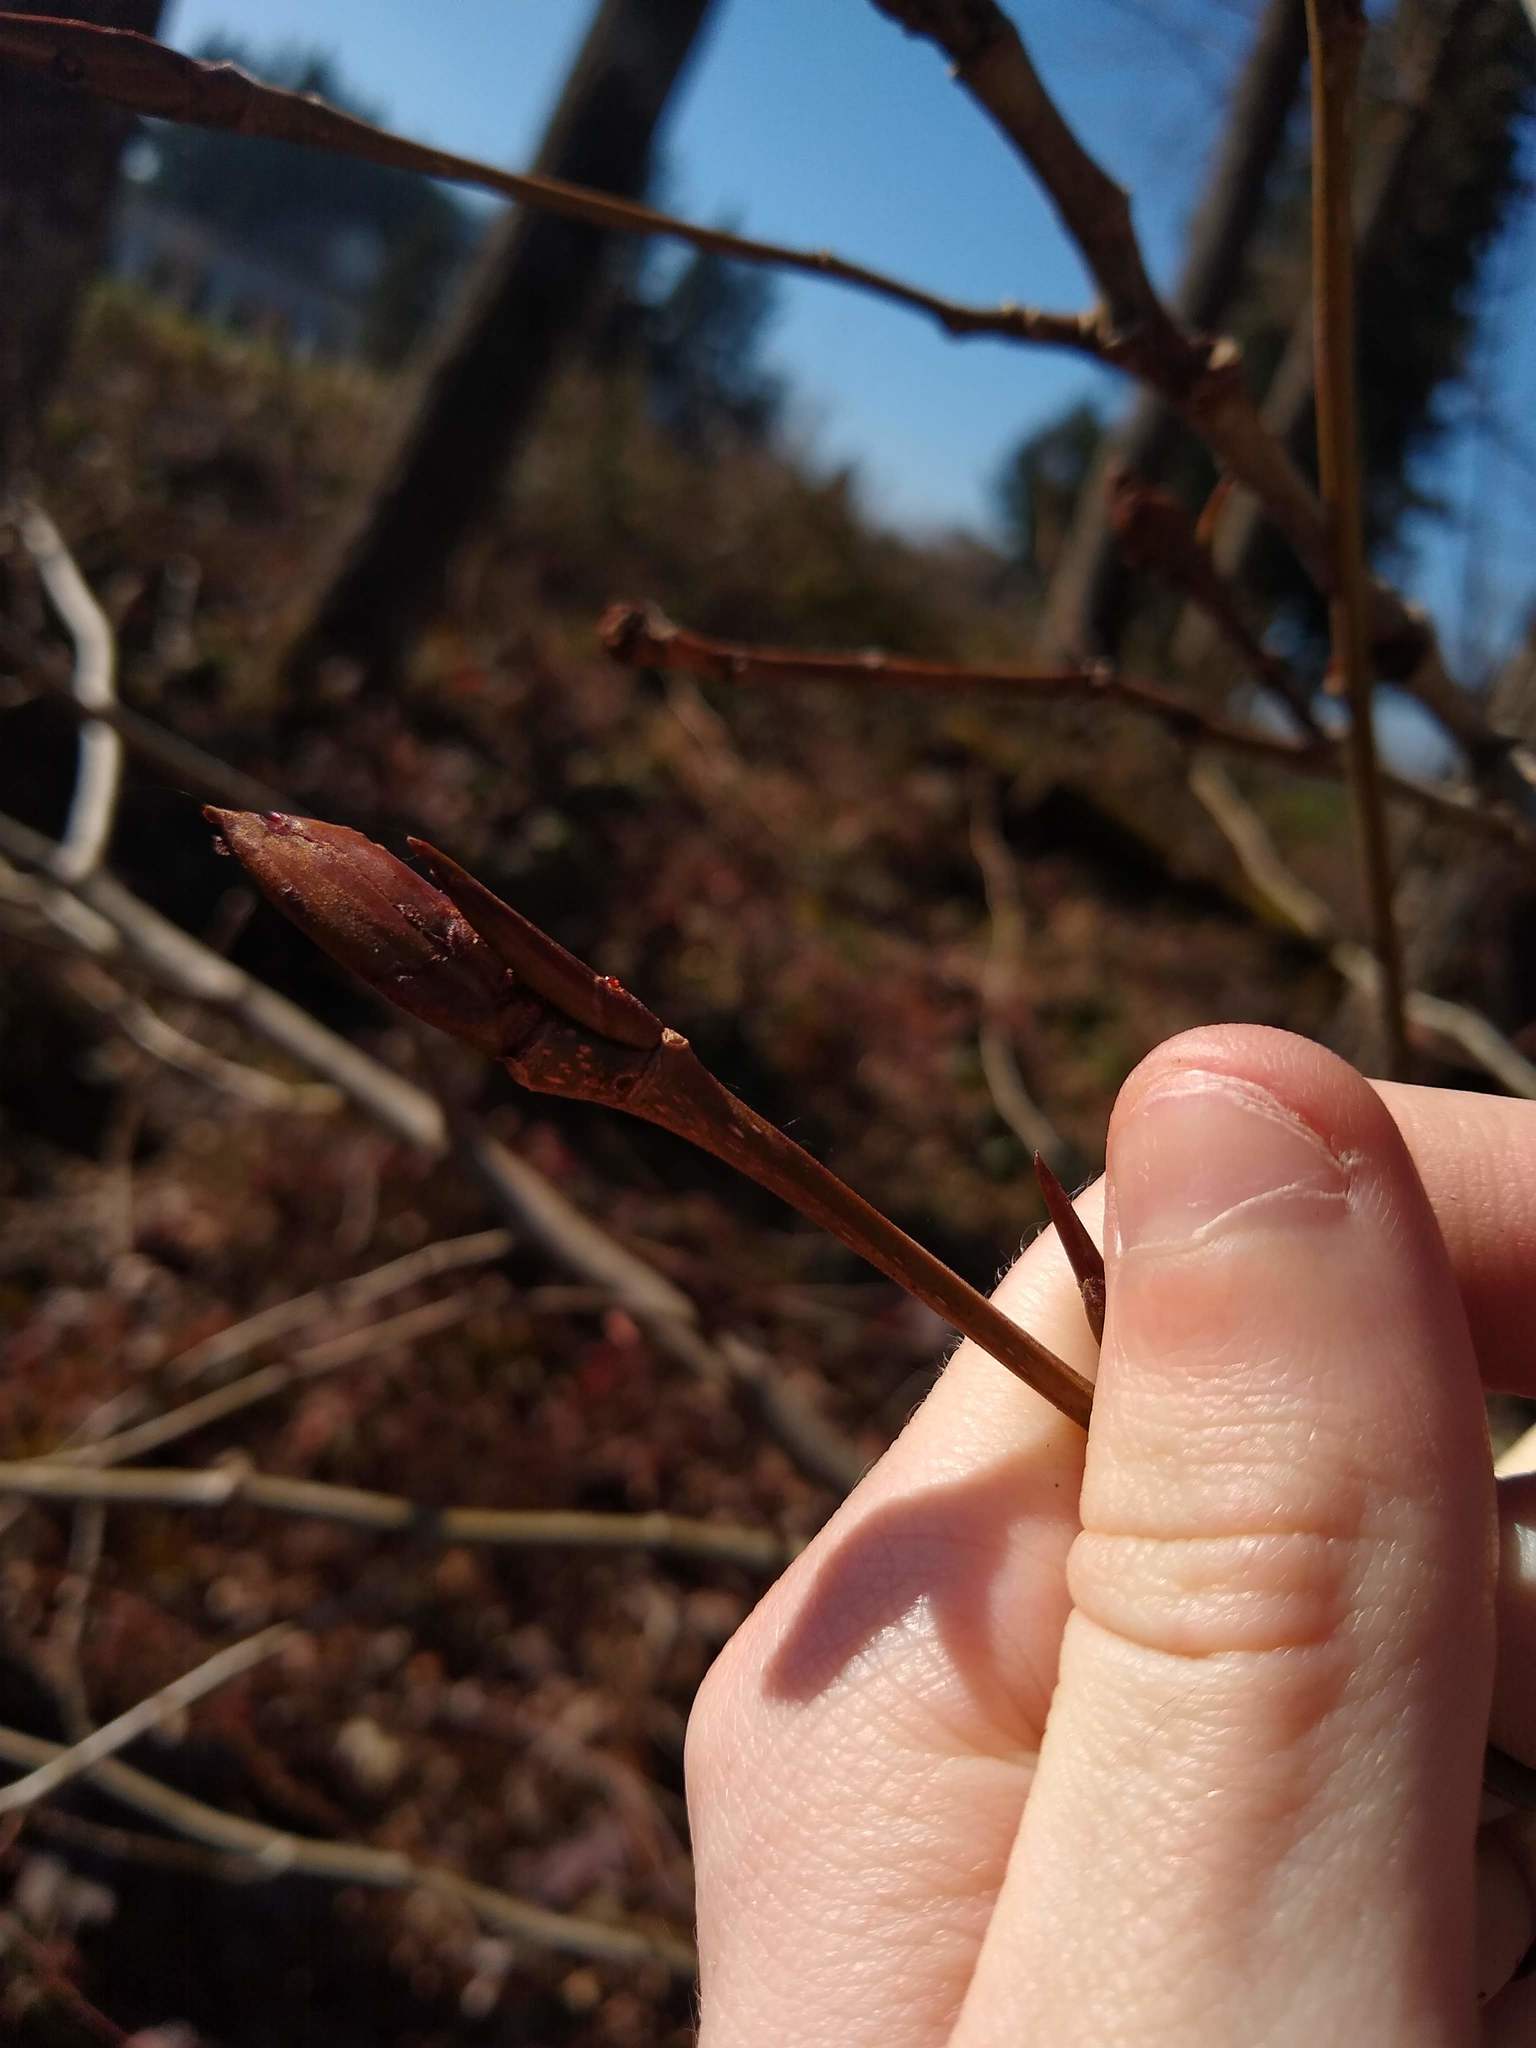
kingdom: Plantae
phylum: Tracheophyta
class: Magnoliopsida
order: Malpighiales
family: Salicaceae
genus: Populus
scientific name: Populus trichocarpa
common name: Black cottonwood
